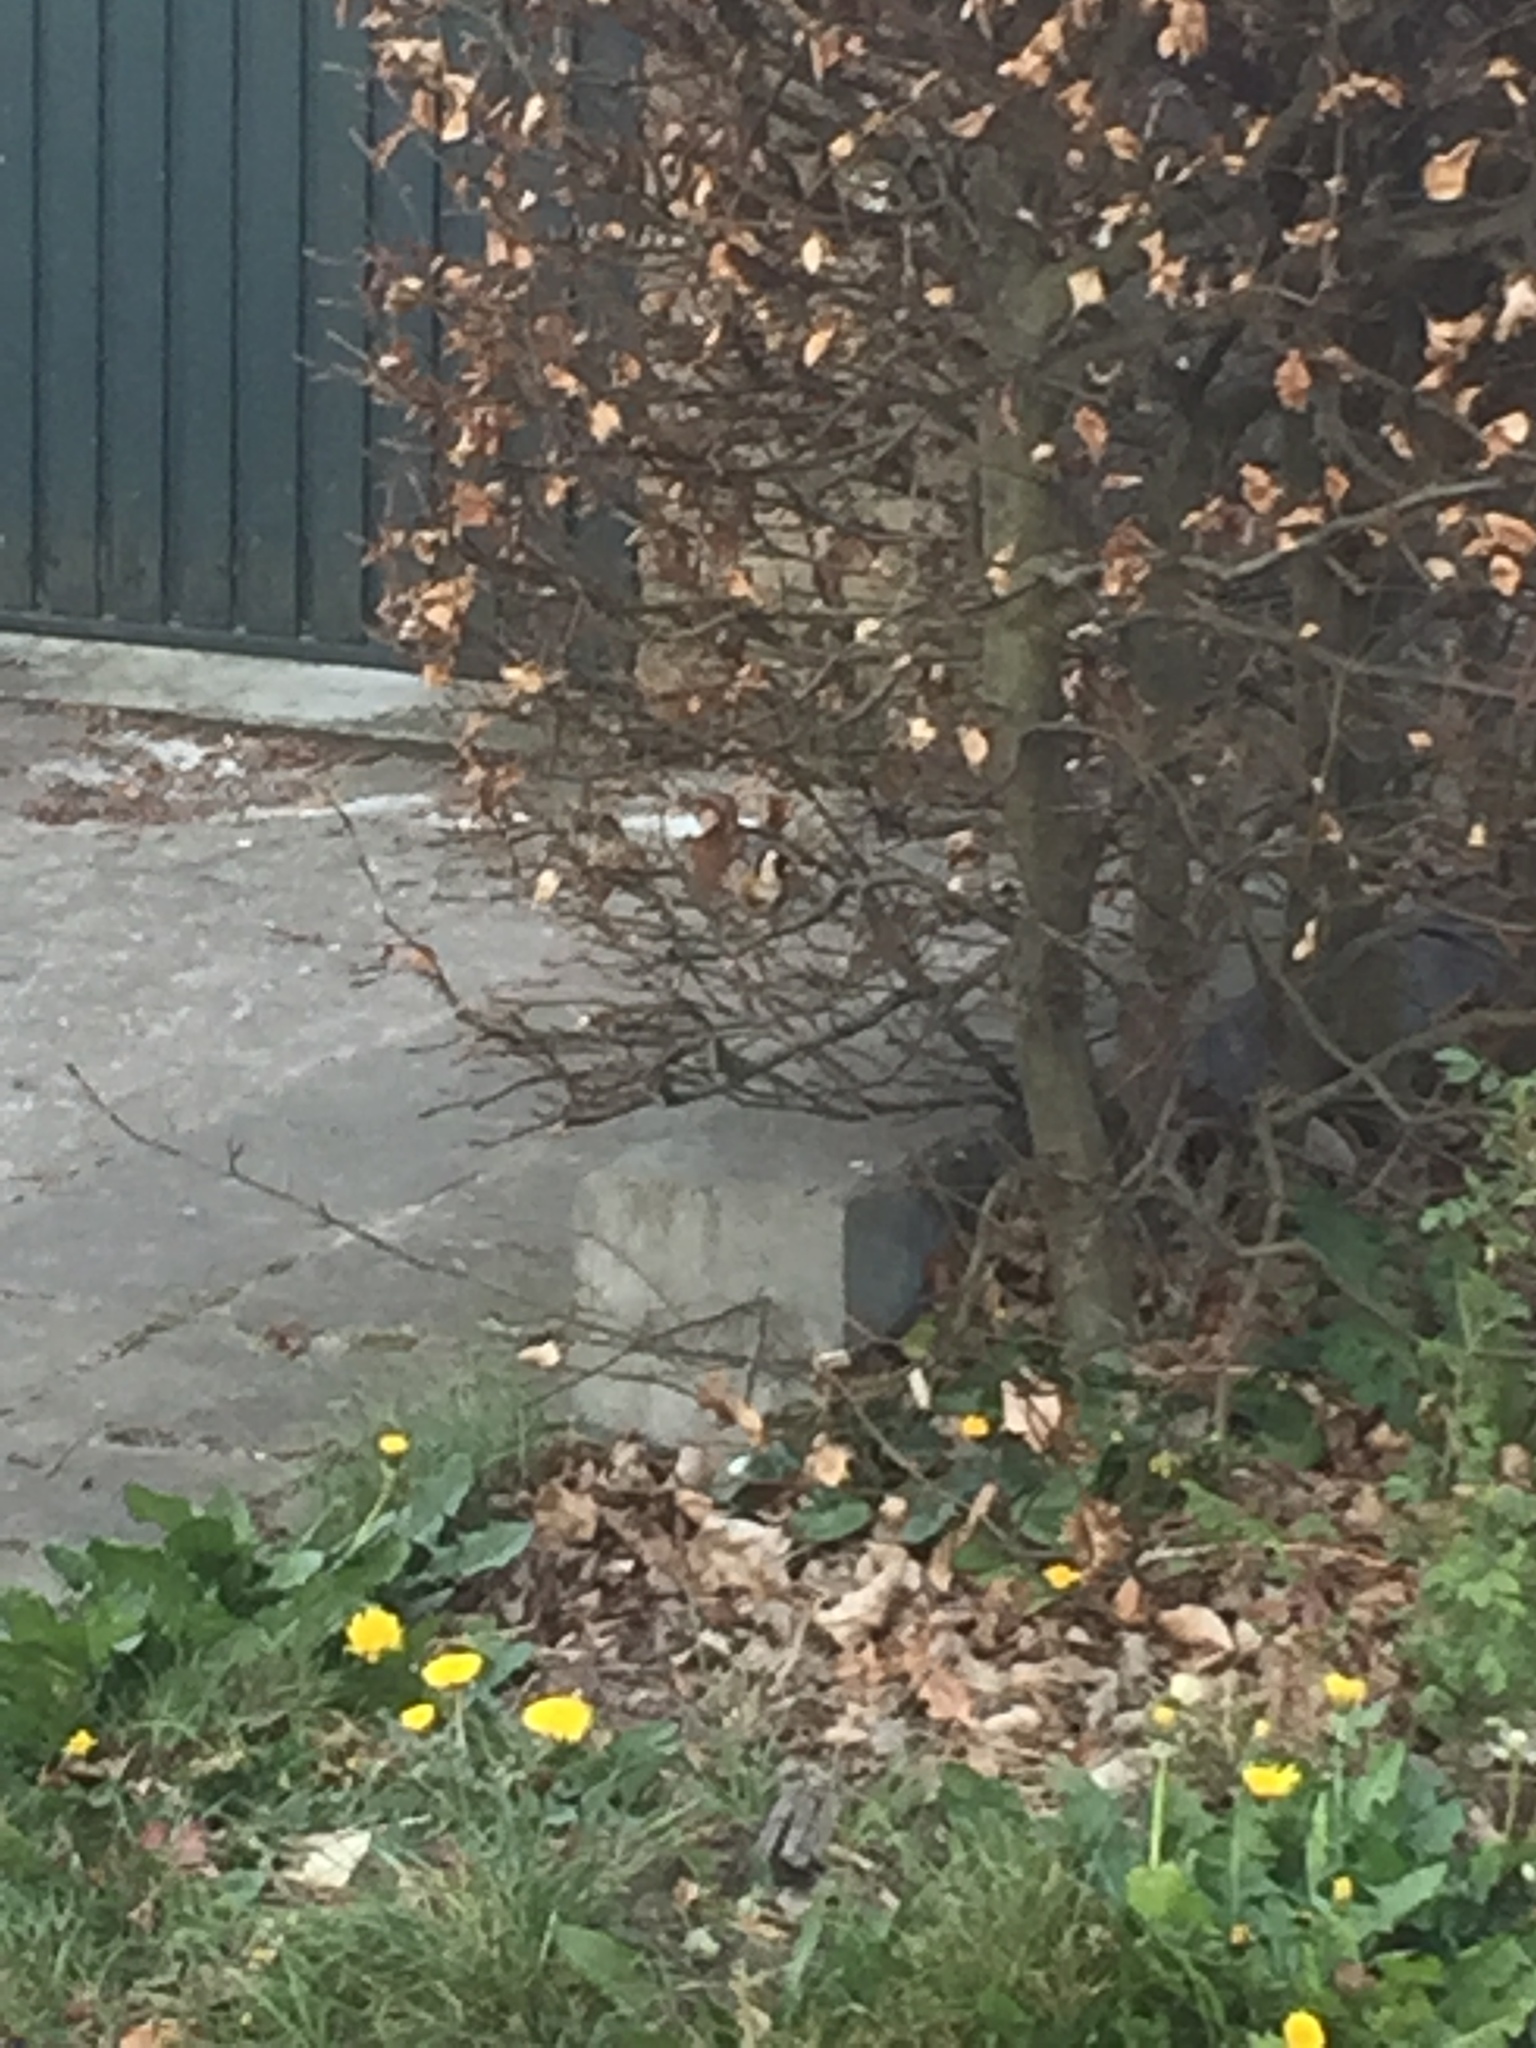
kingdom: Animalia
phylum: Chordata
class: Aves
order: Passeriformes
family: Fringillidae
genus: Carduelis
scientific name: Carduelis carduelis
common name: European goldfinch
